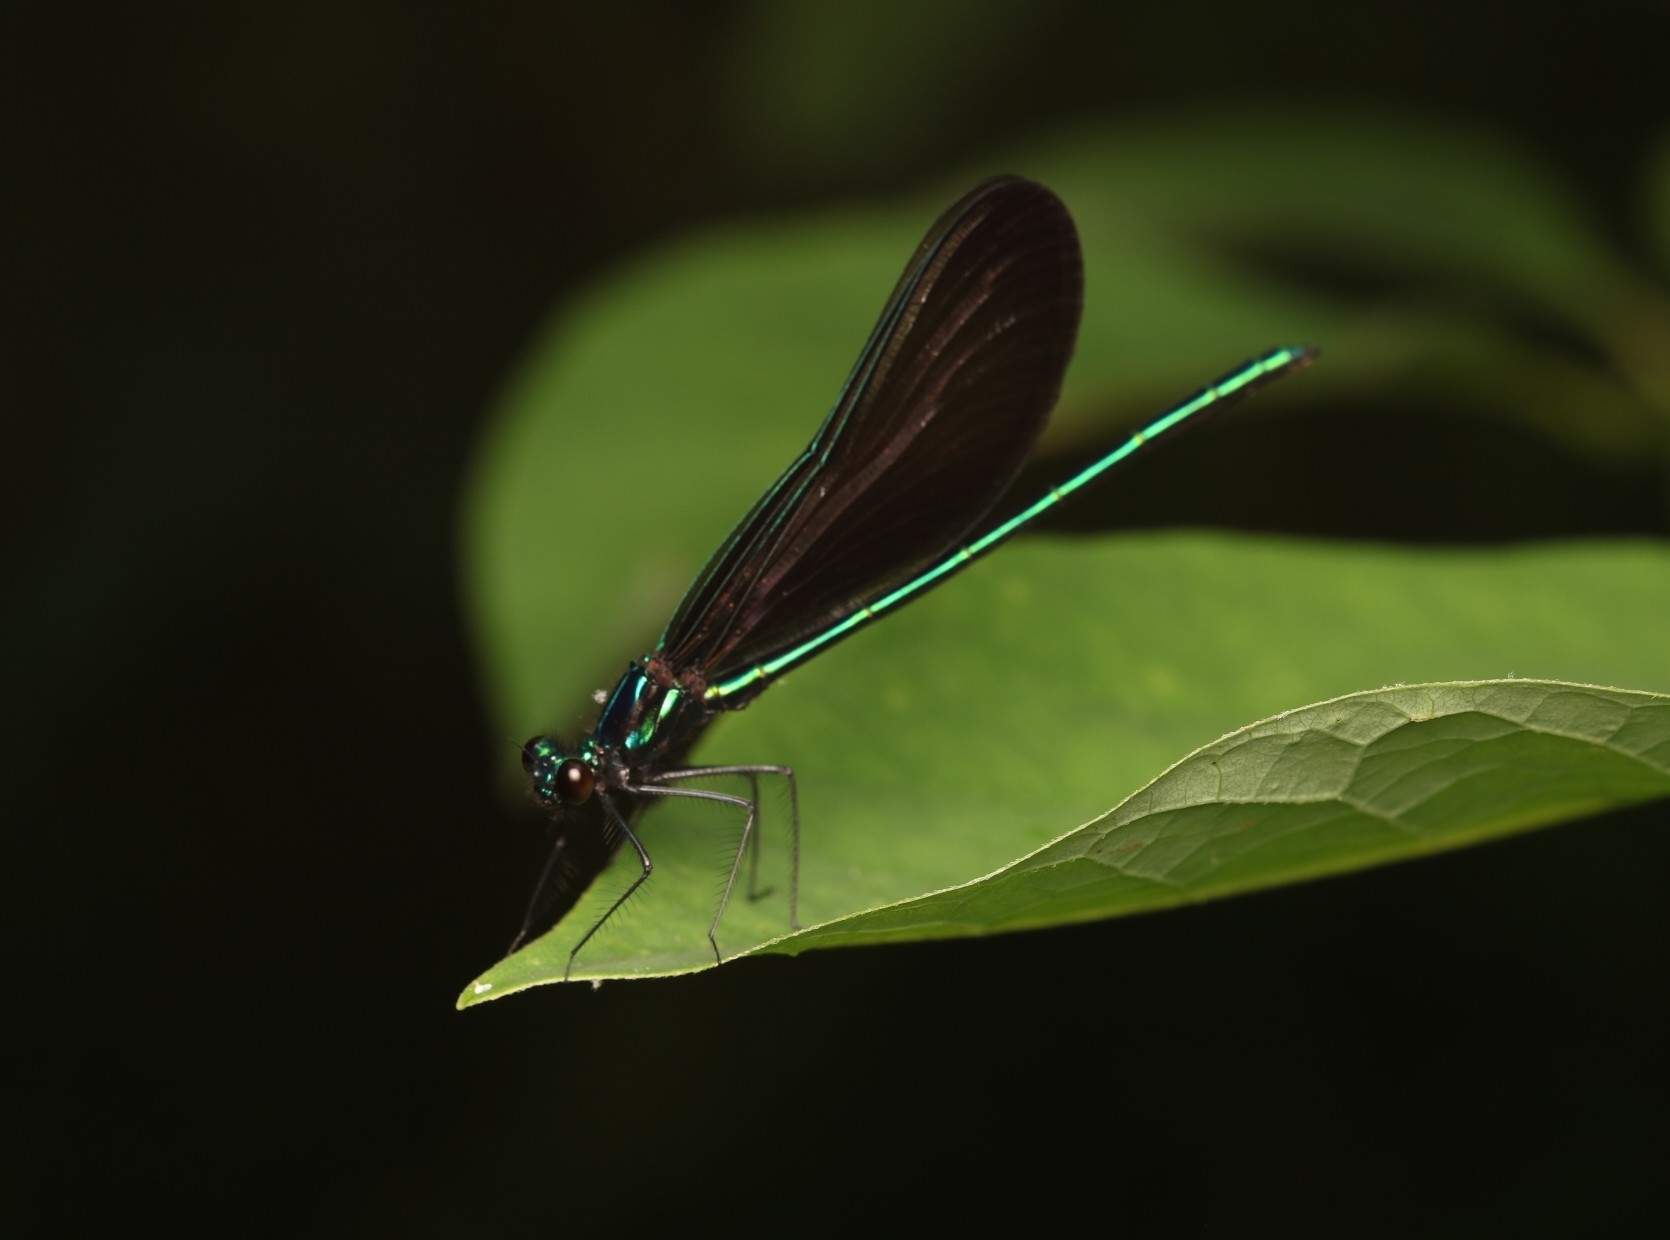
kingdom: Animalia
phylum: Arthropoda
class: Insecta
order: Odonata
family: Calopterygidae
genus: Calopteryx
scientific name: Calopteryx maculata
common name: Ebony jewelwing
